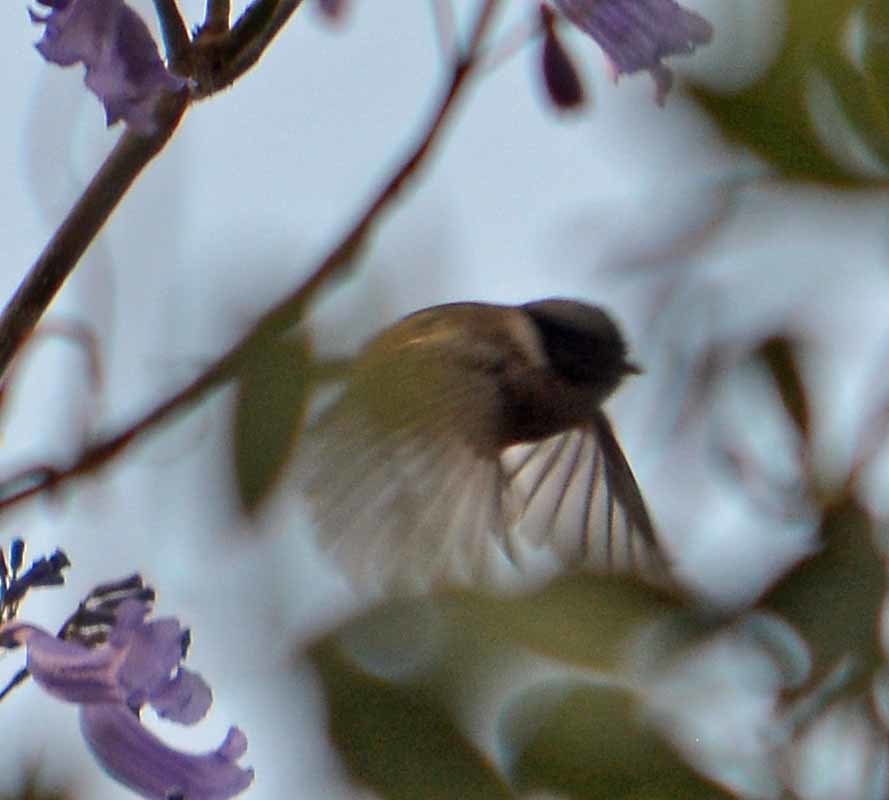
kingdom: Animalia
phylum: Chordata
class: Aves
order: Passeriformes
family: Aegithalidae
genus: Psaltriparus
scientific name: Psaltriparus minimus
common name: American bushtit
